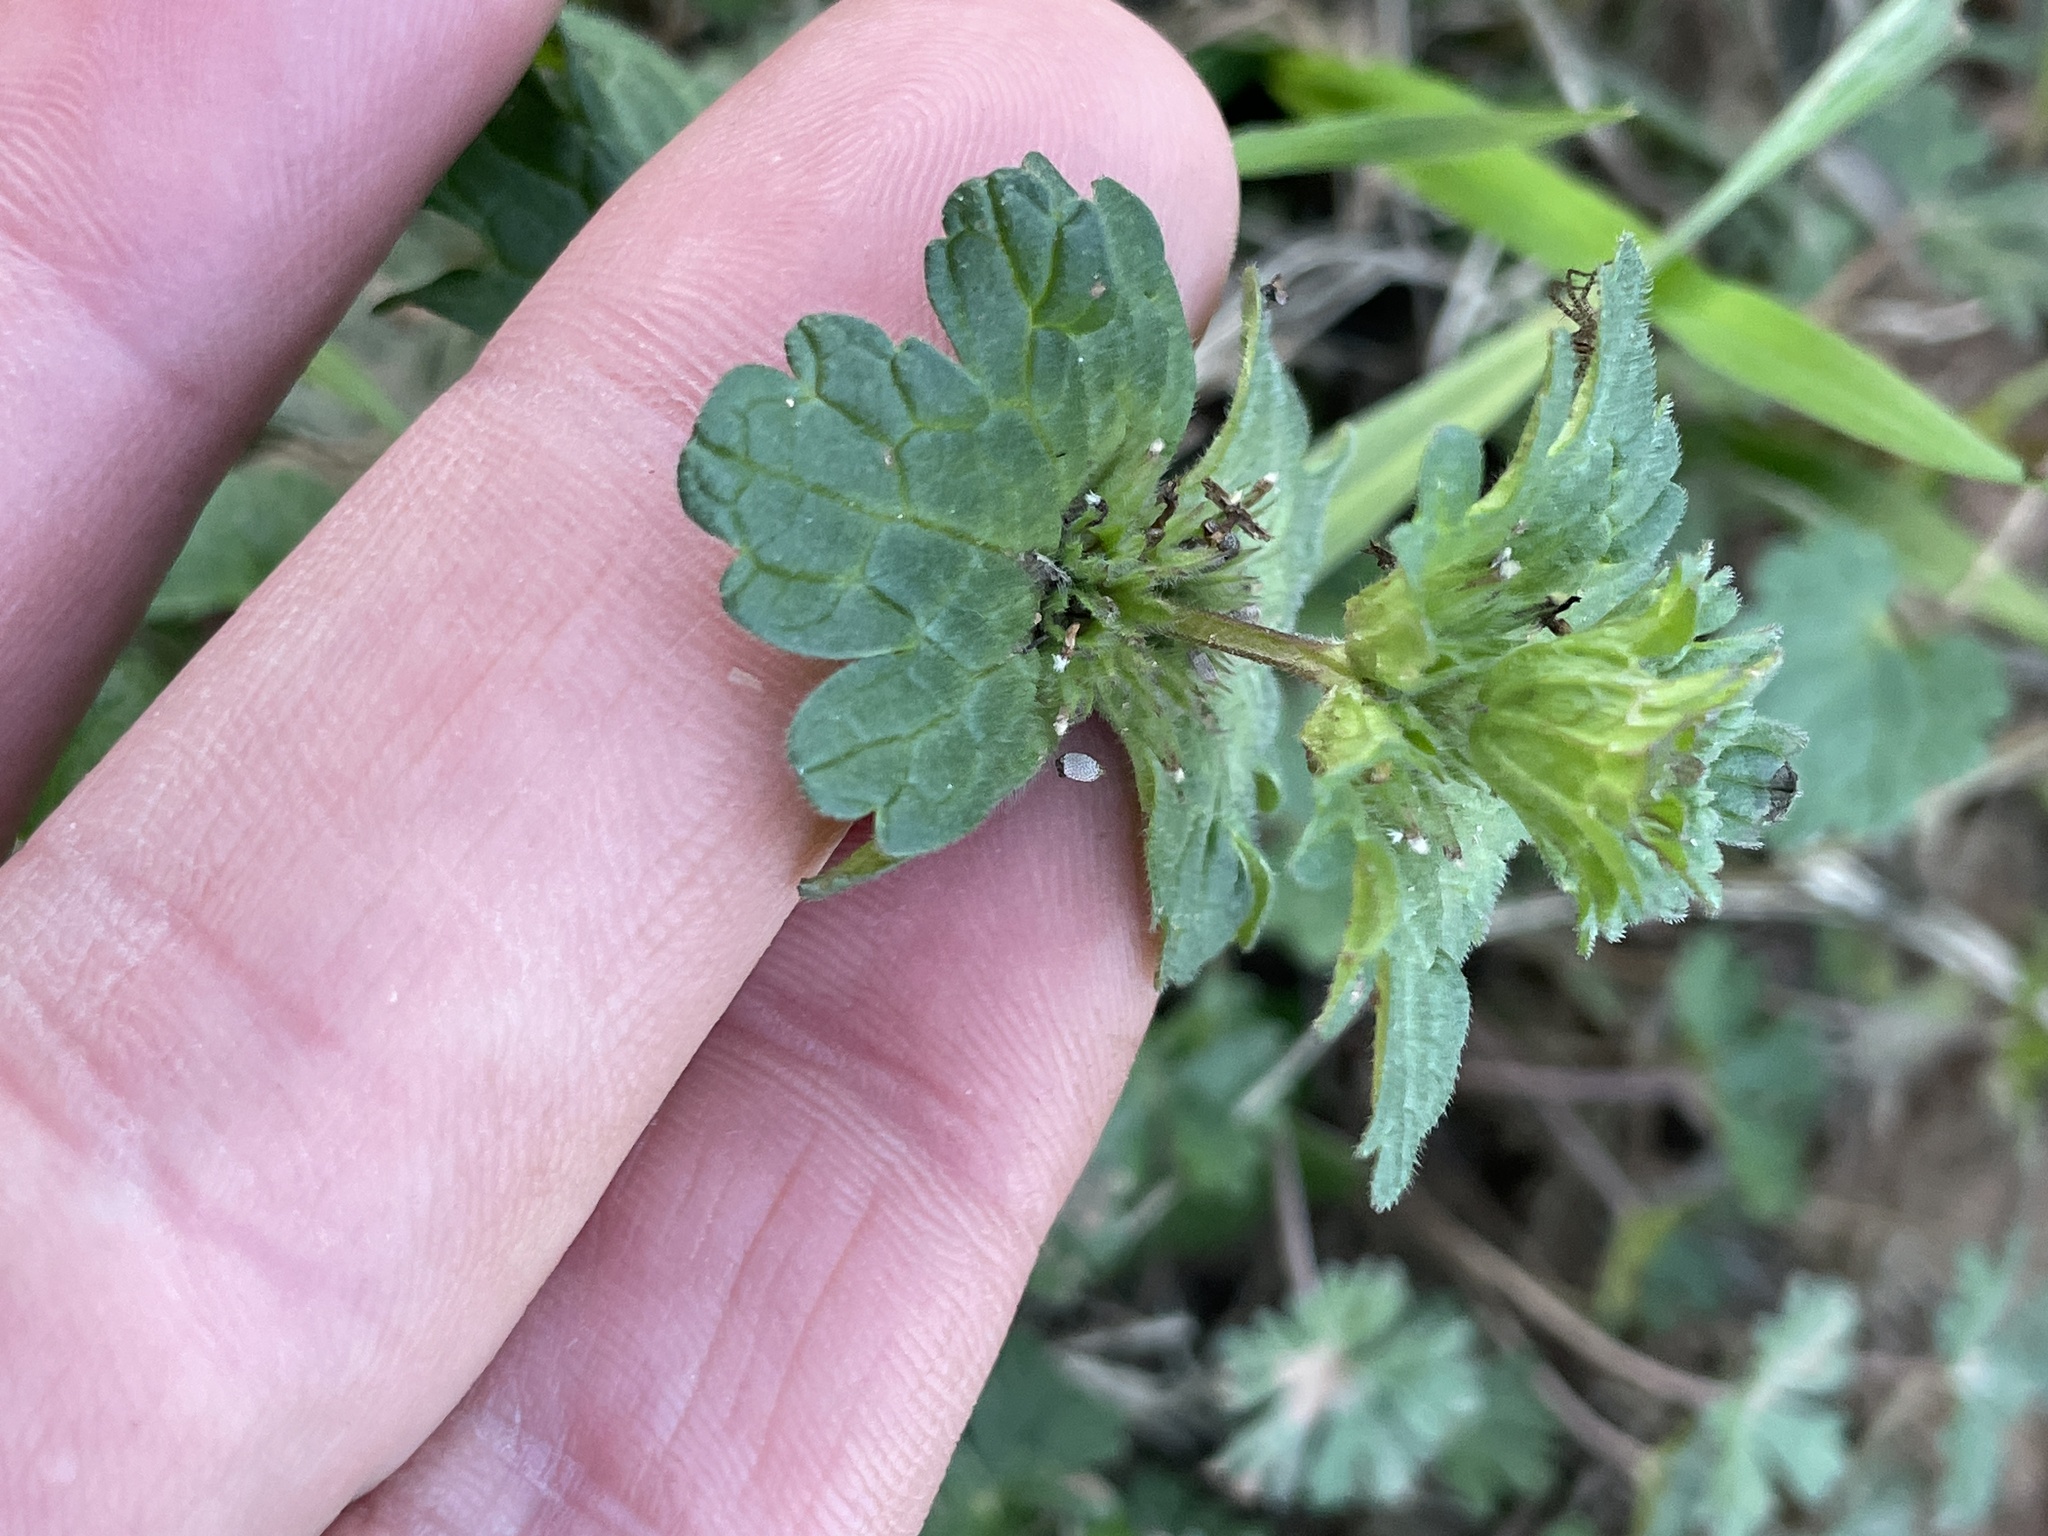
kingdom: Plantae
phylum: Tracheophyta
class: Magnoliopsida
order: Lamiales
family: Lamiaceae
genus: Lamium
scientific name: Lamium amplexicaule
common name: Henbit dead-nettle
